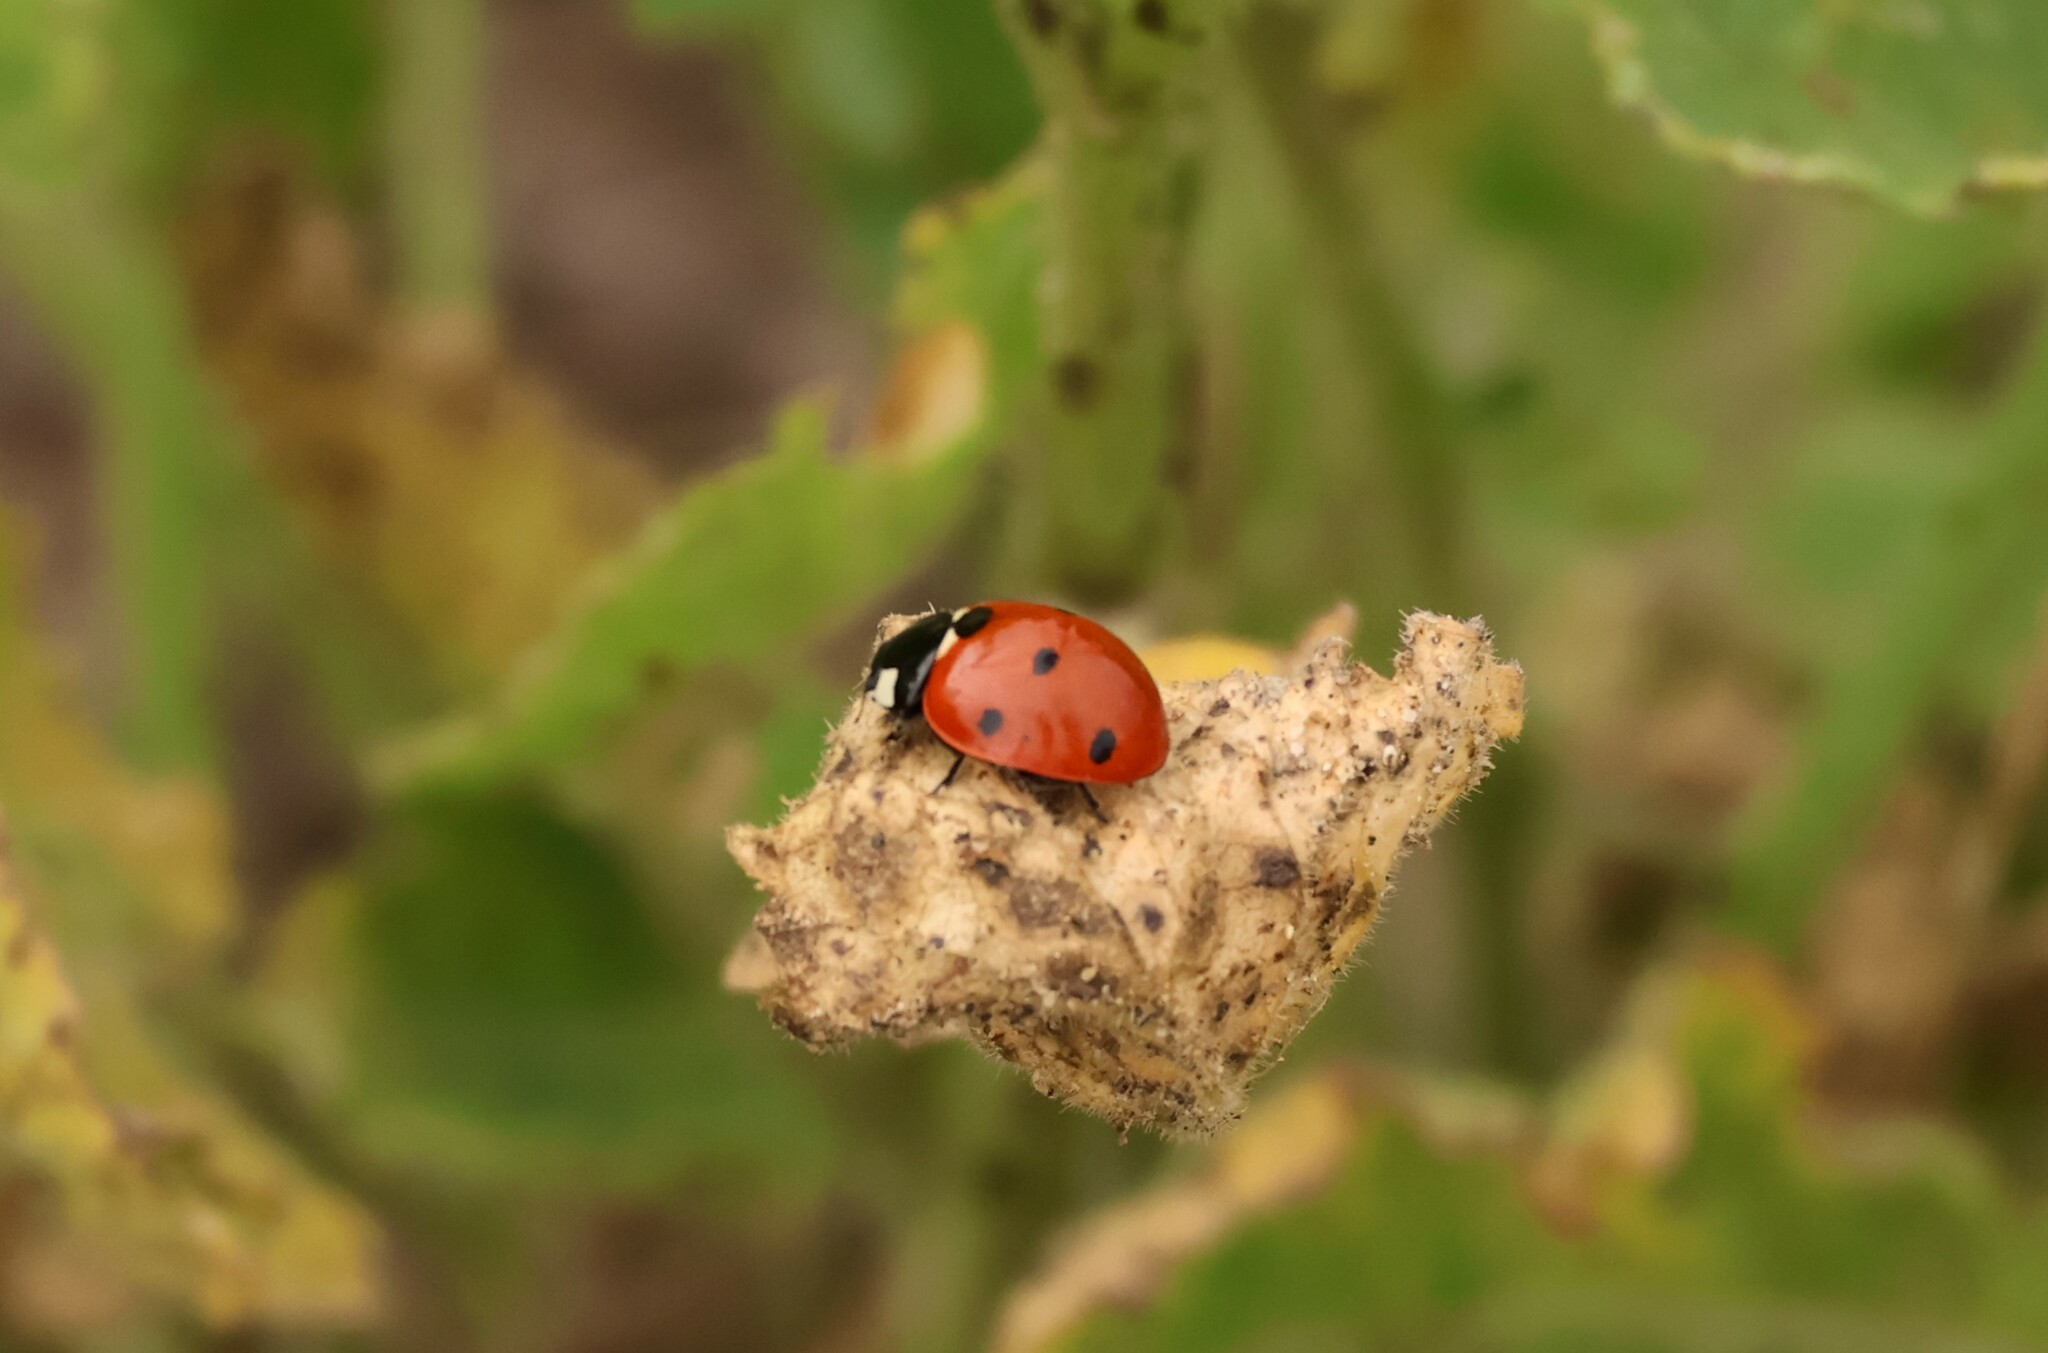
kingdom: Animalia
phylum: Arthropoda
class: Insecta
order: Coleoptera
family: Coccinellidae
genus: Coccinella
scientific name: Coccinella septempunctata
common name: Sevenspotted lady beetle
